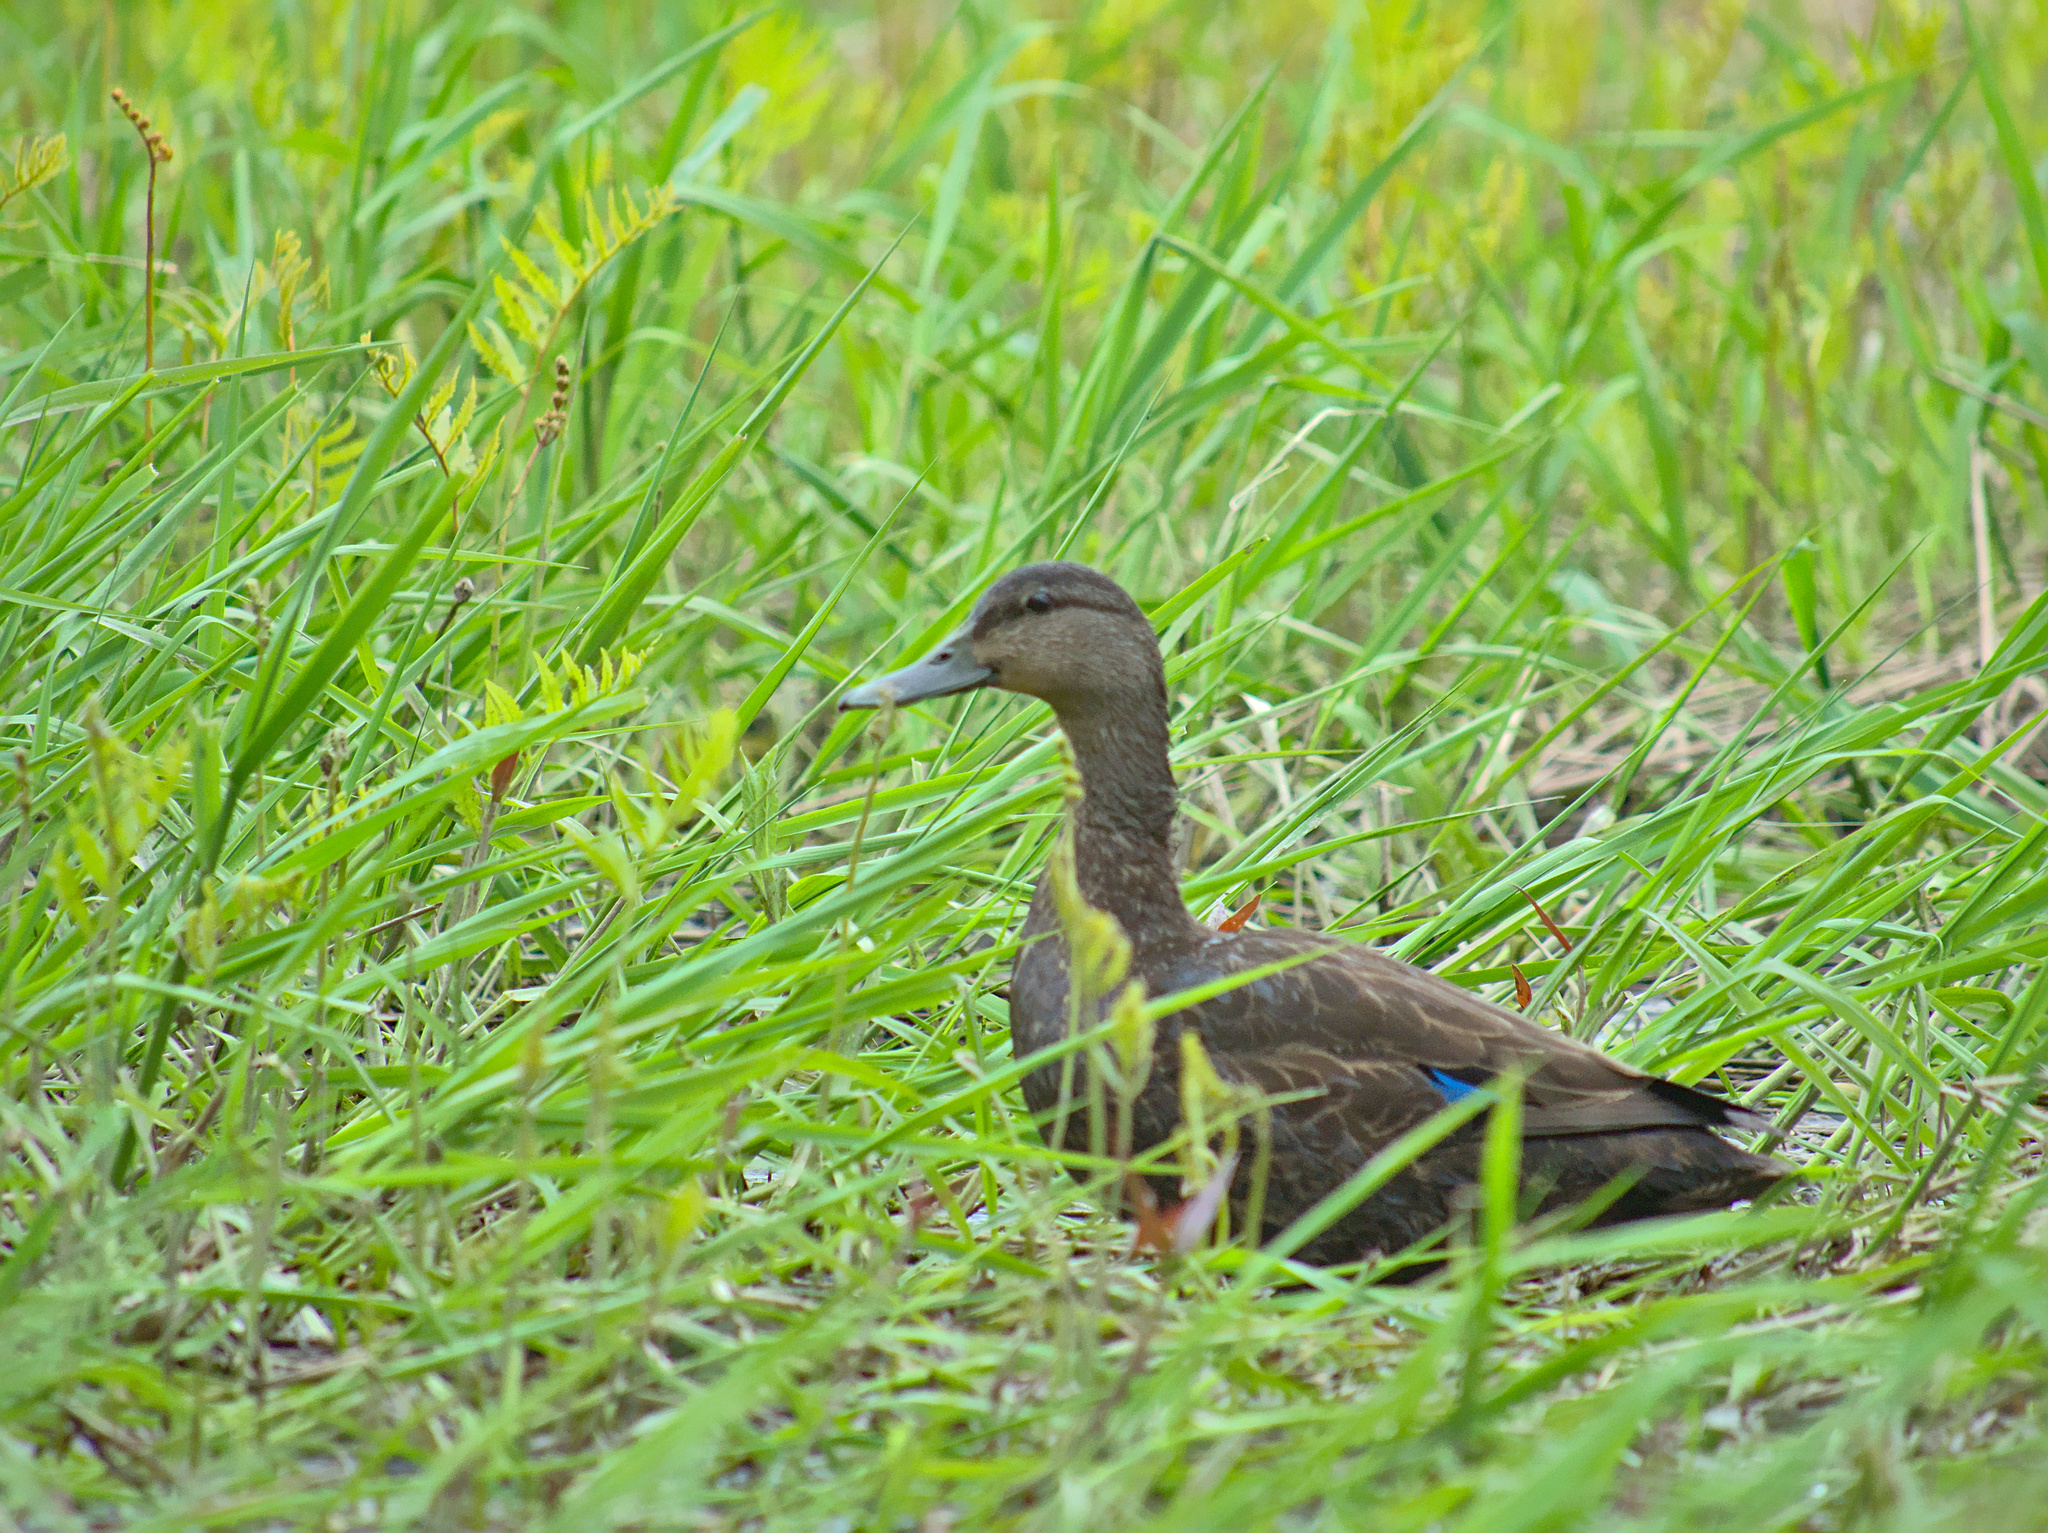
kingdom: Animalia
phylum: Chordata
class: Aves
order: Anseriformes
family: Anatidae
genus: Anas
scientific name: Anas rubripes
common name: American black duck
